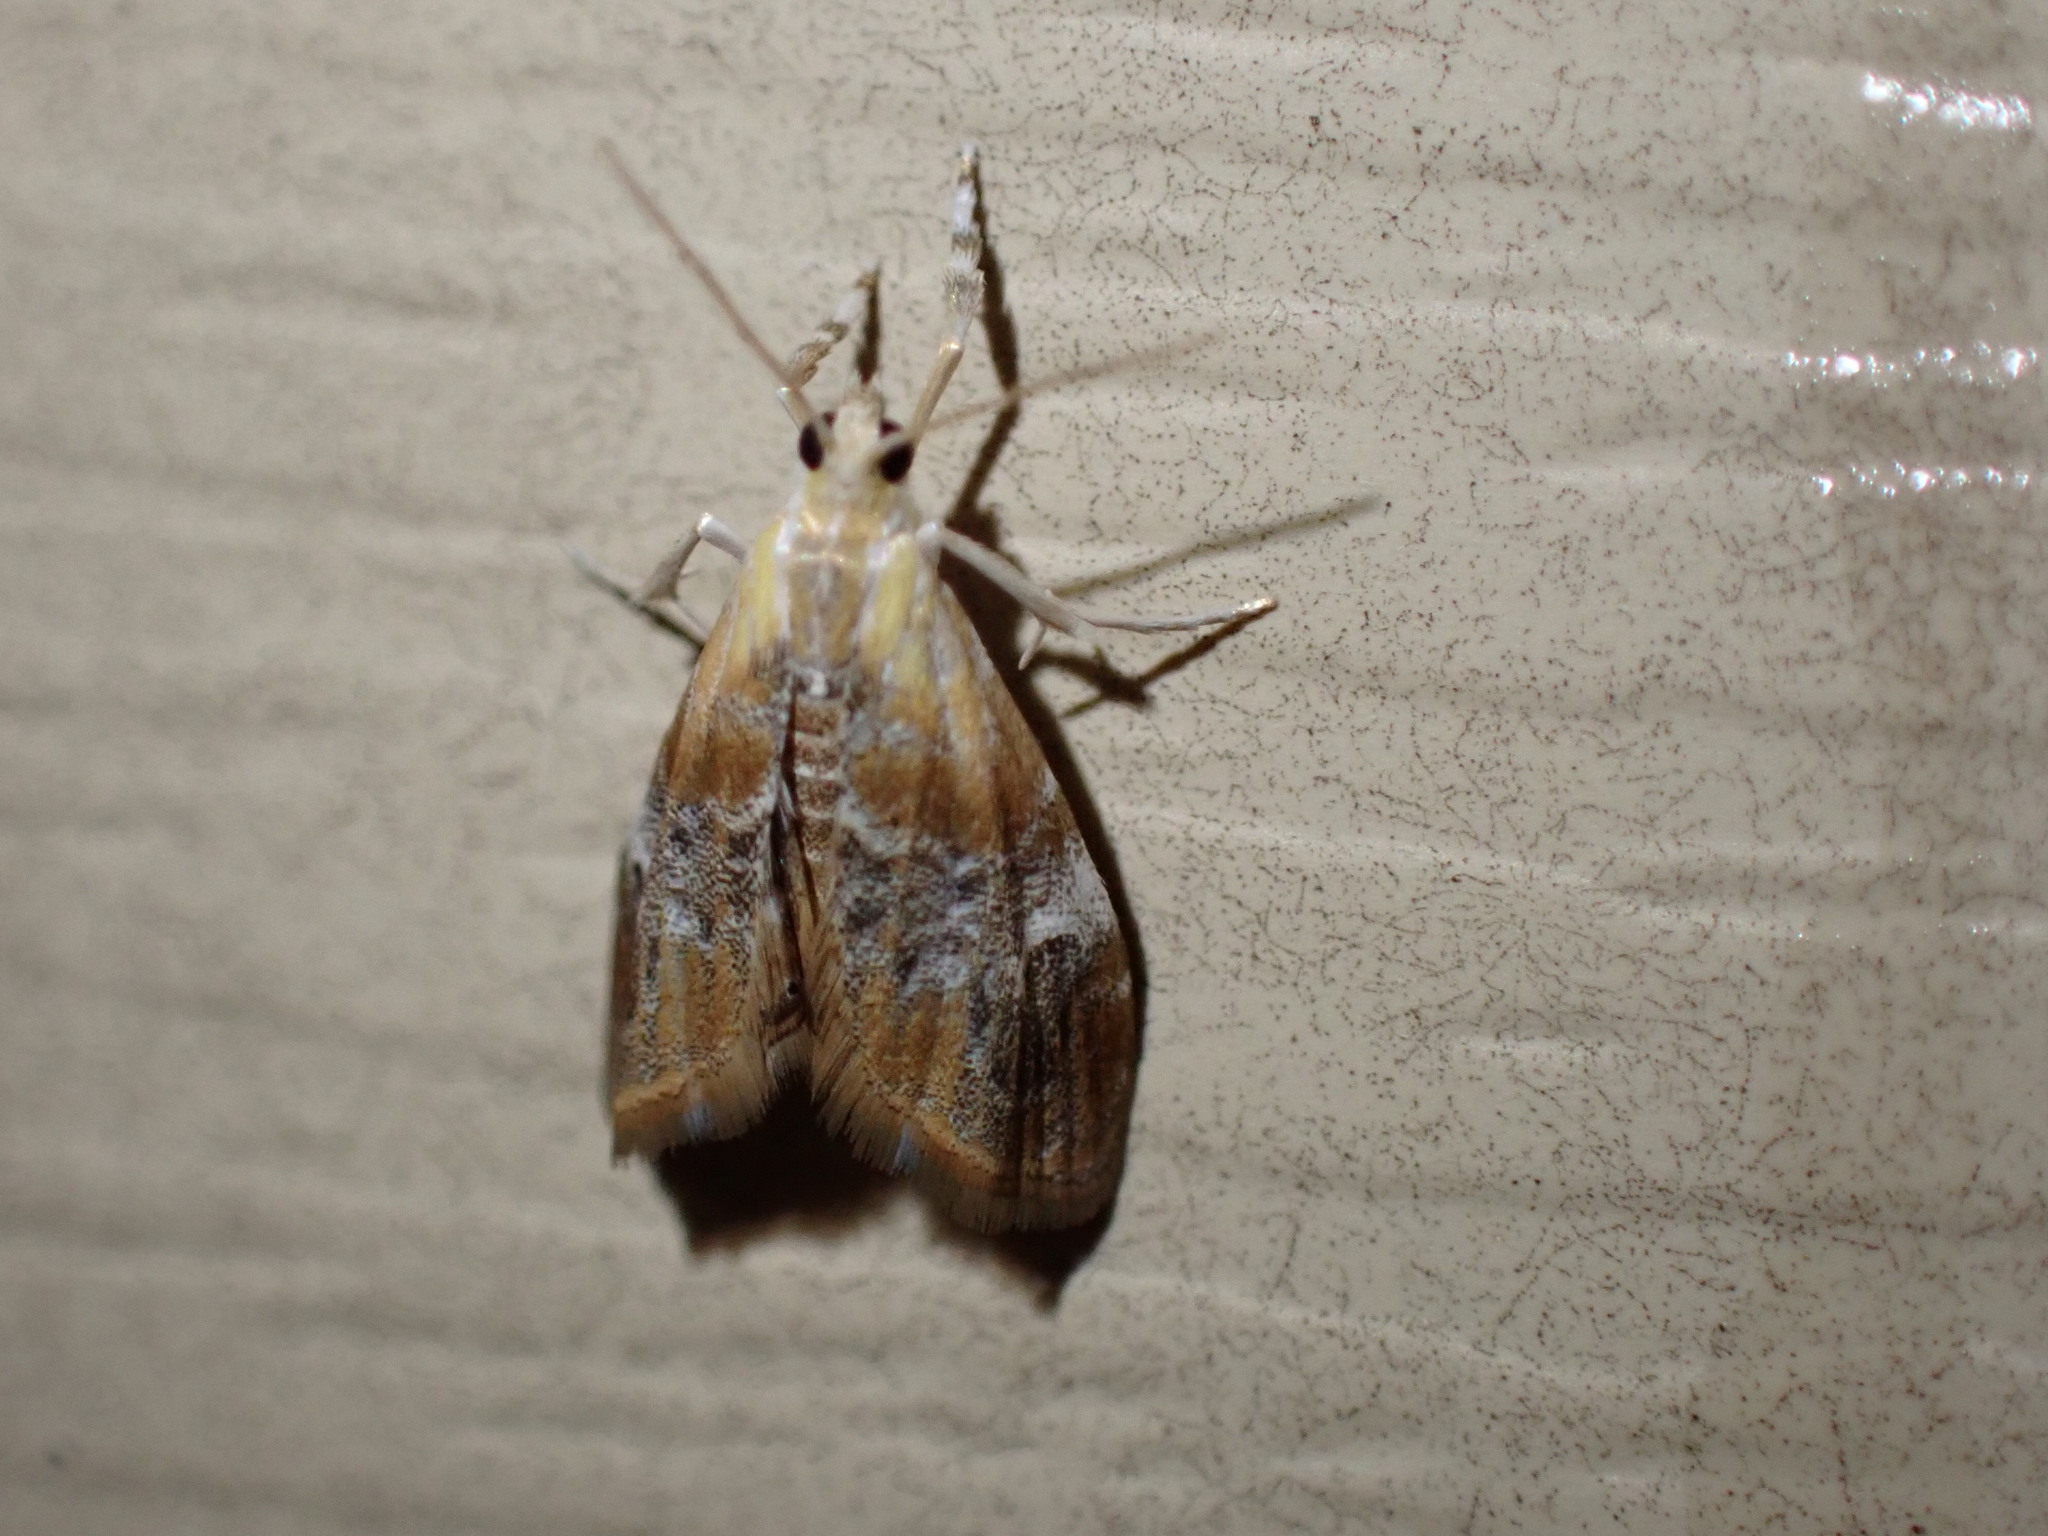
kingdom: Animalia
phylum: Arthropoda
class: Insecta
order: Lepidoptera
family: Crambidae
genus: Dicymolomia
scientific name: Dicymolomia julianalis
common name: Julia's dicymolomia moth
